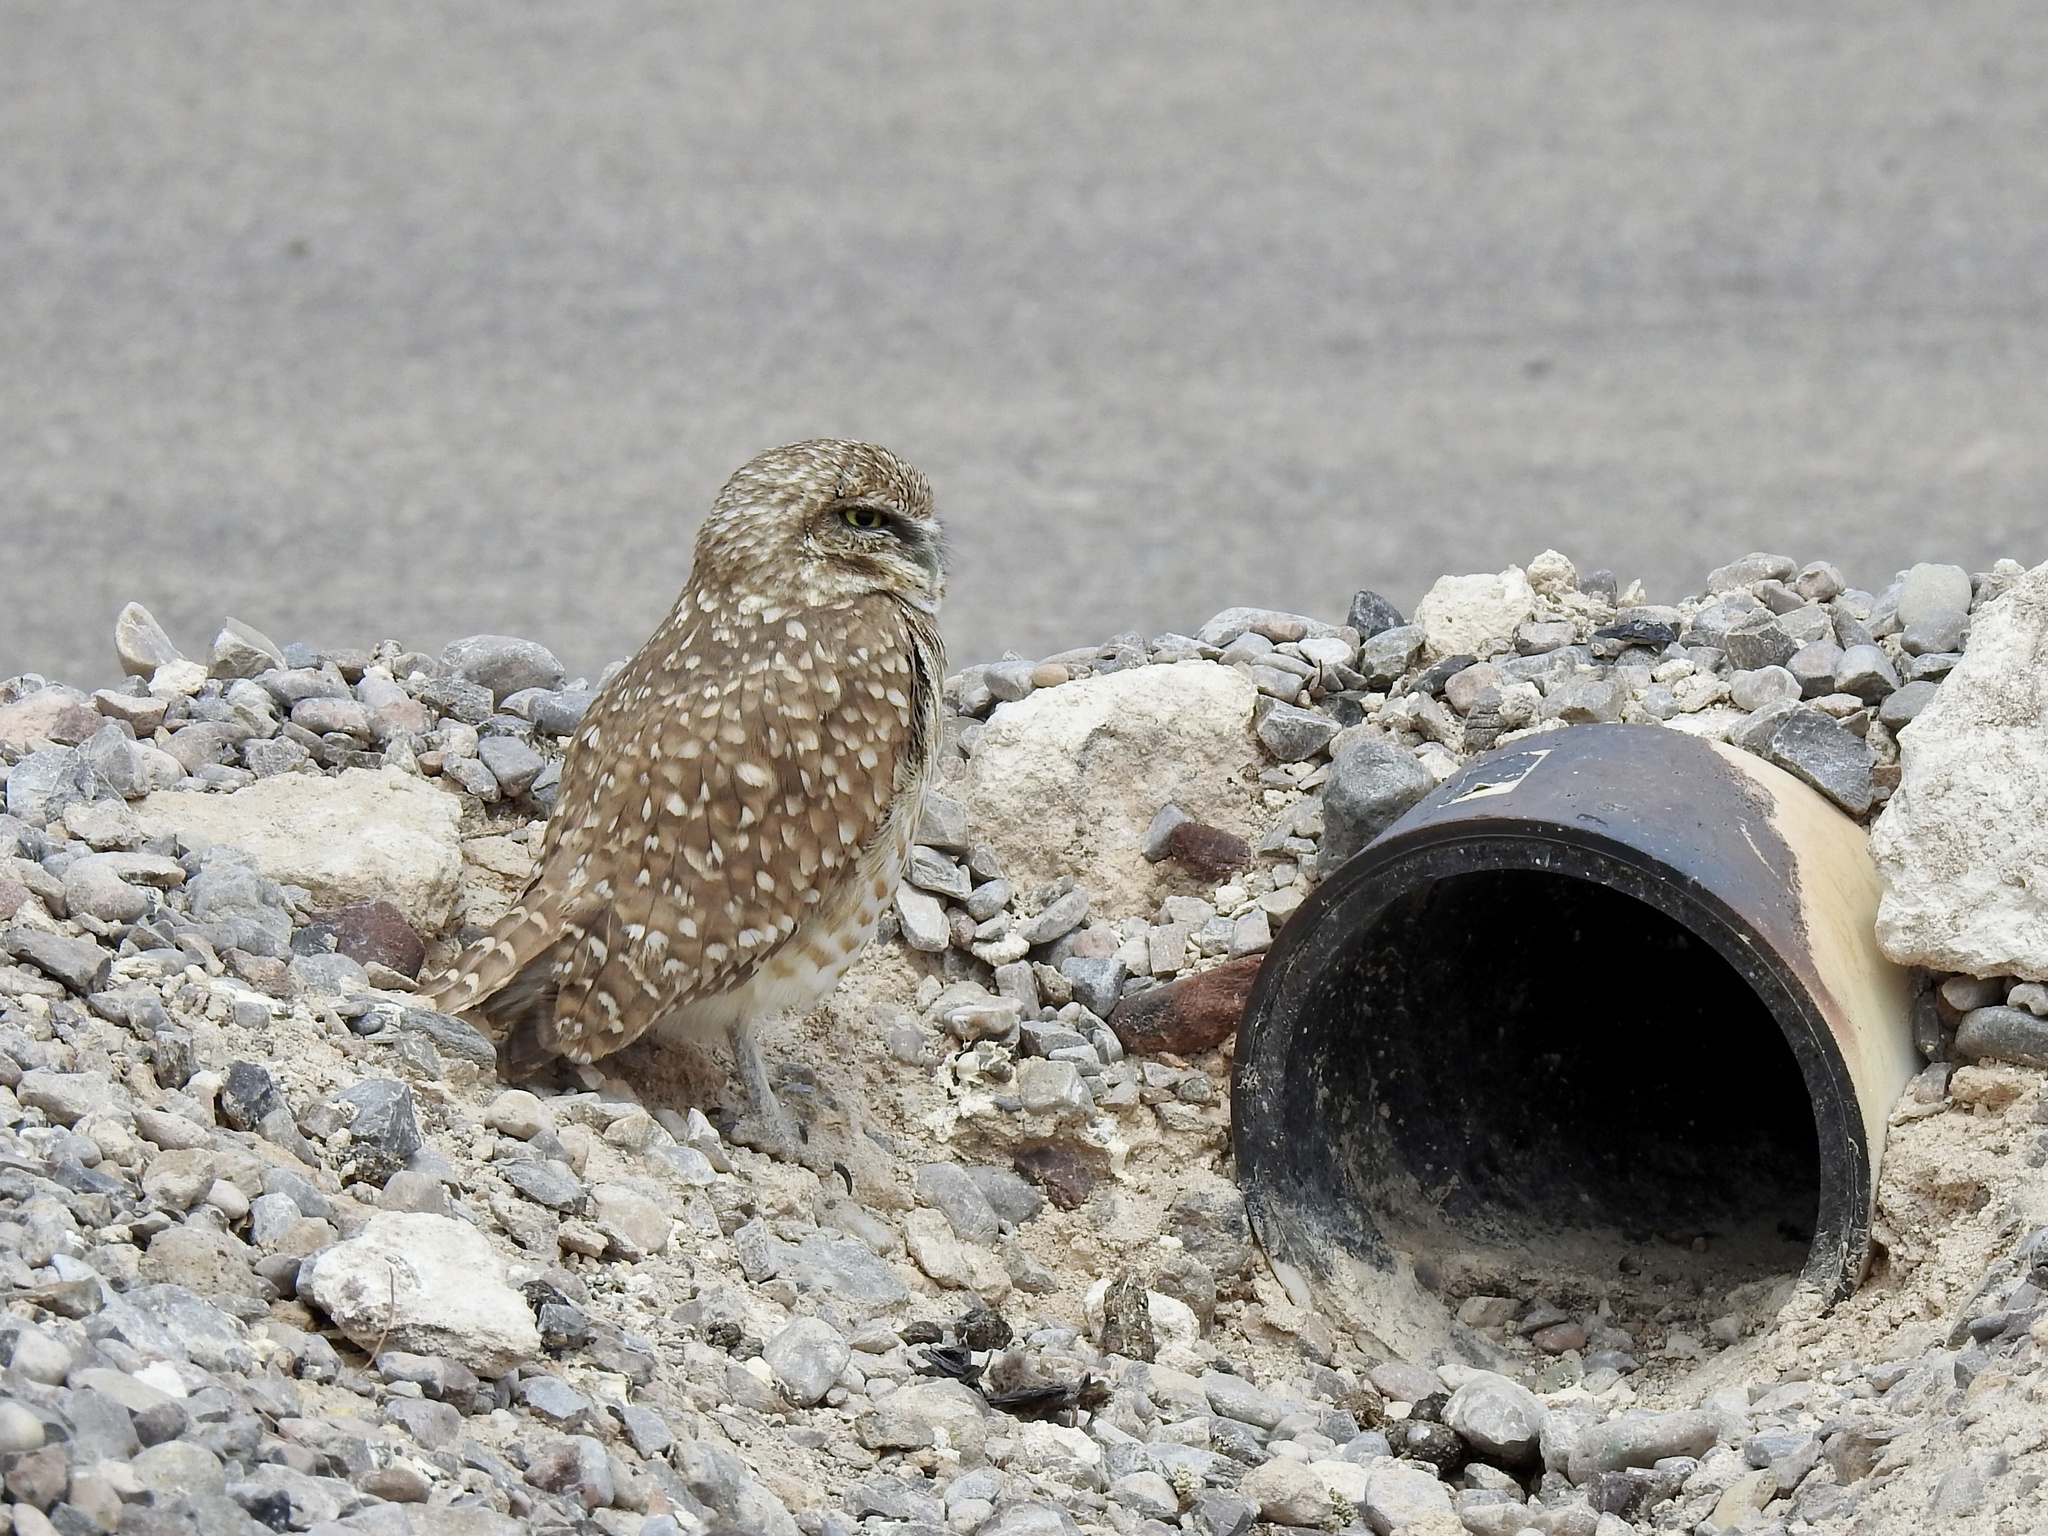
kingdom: Animalia
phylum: Chordata
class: Aves
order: Strigiformes
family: Strigidae
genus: Athene
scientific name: Athene cunicularia
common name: Burrowing owl
